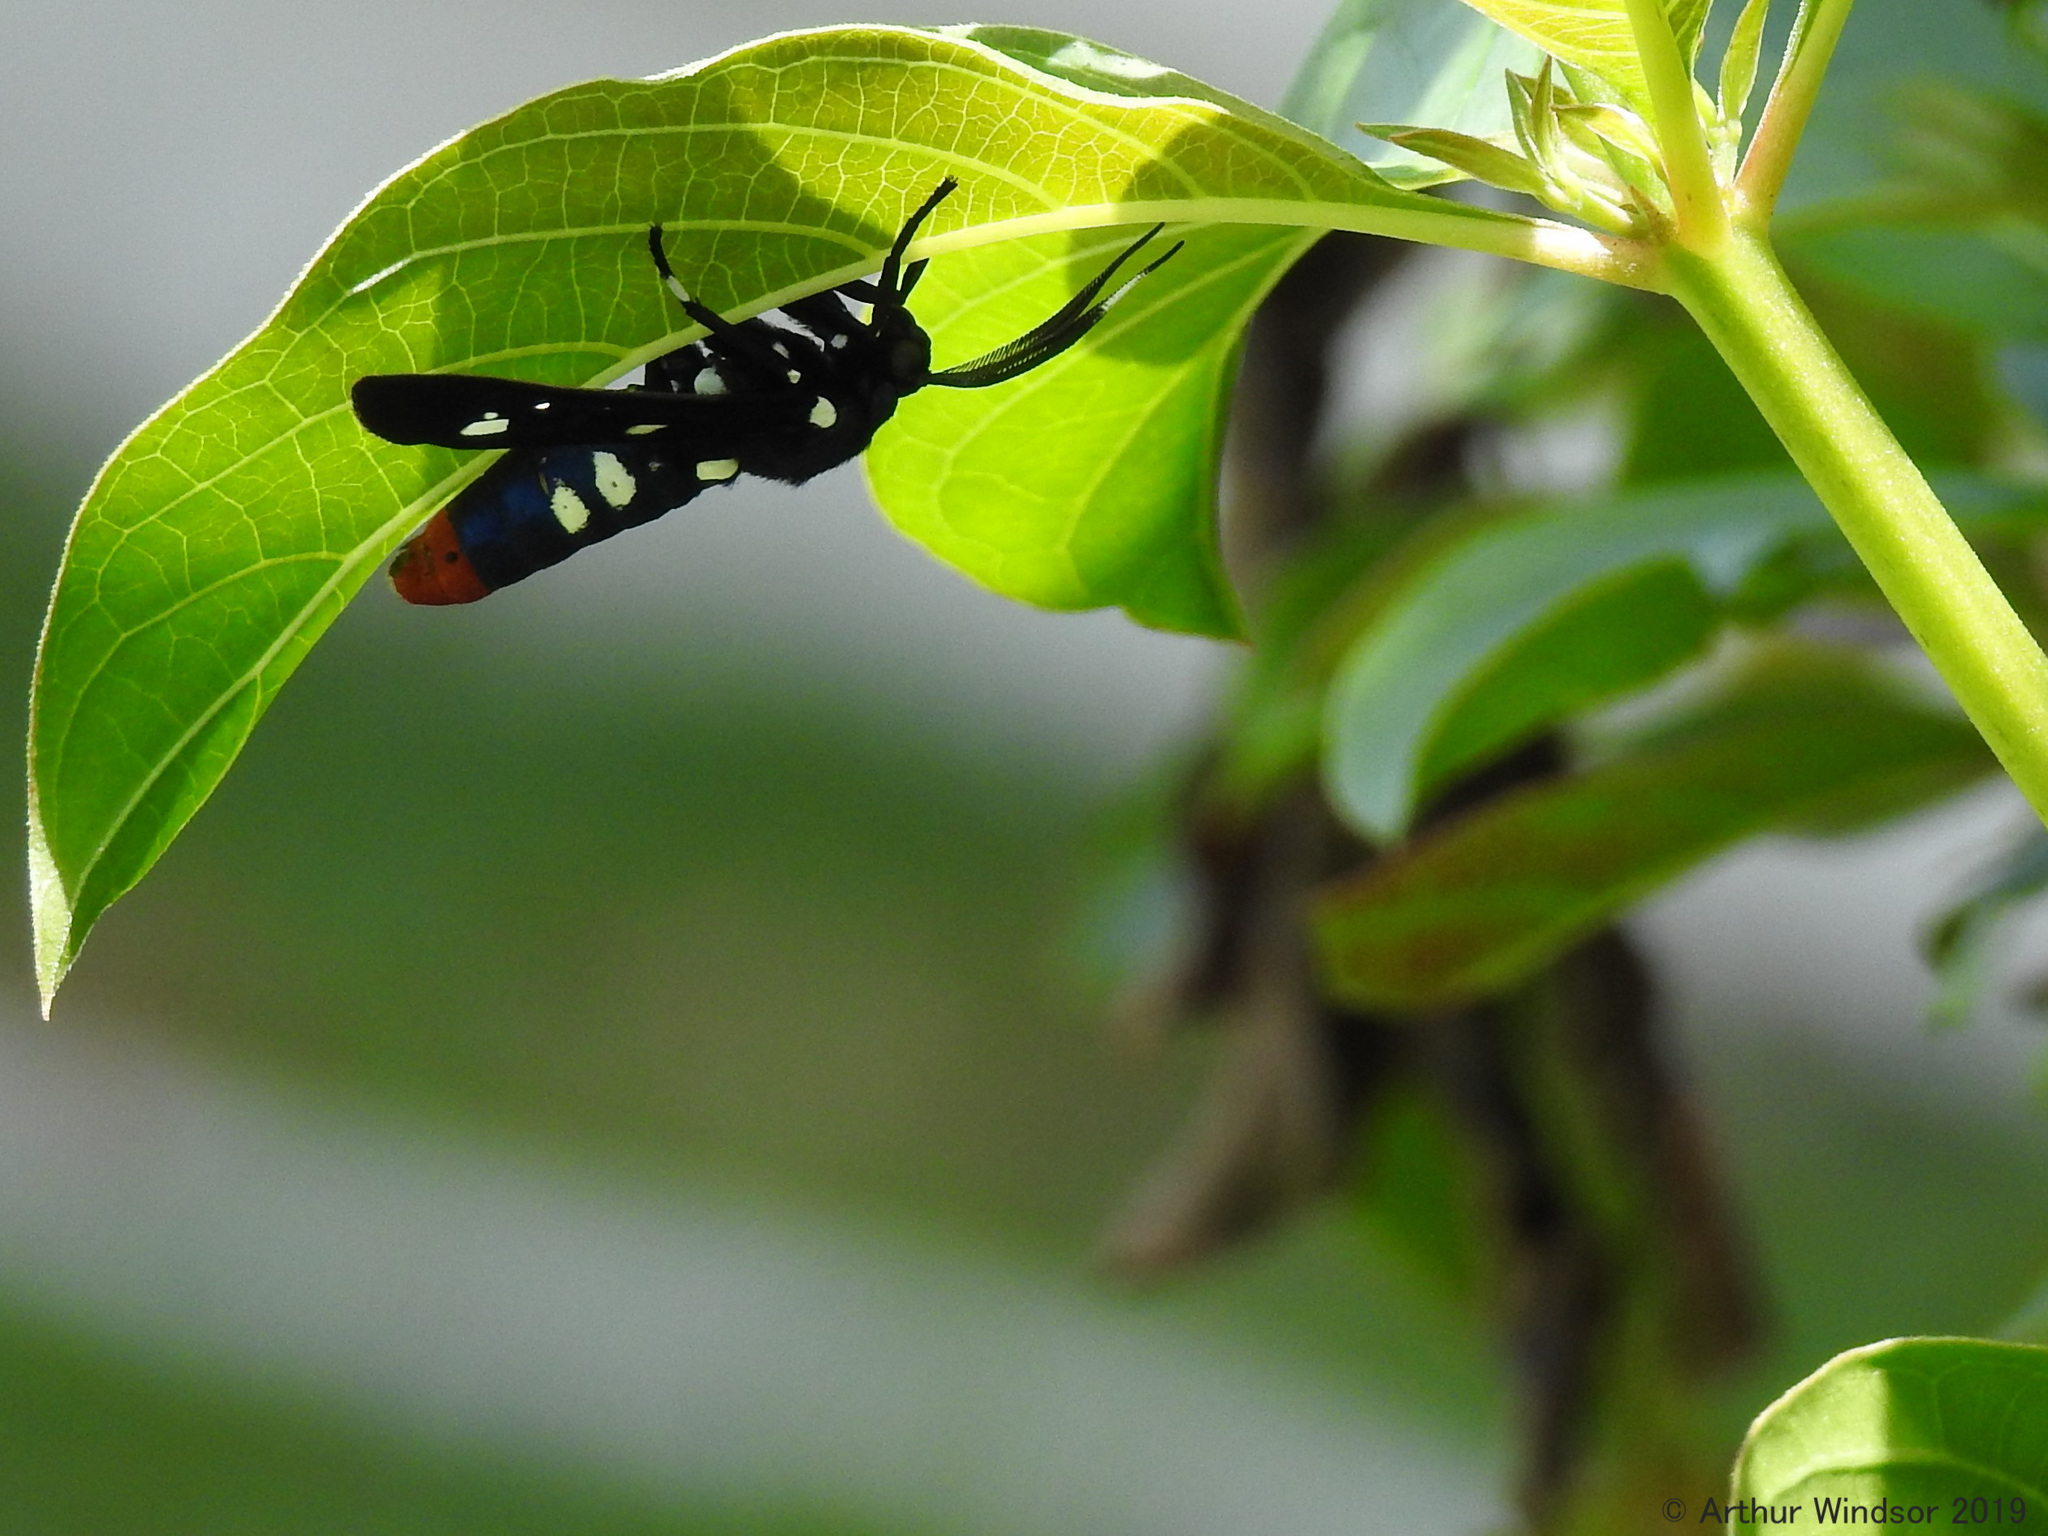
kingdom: Animalia
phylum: Arthropoda
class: Insecta
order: Lepidoptera
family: Erebidae
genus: Syntomeida
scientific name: Syntomeida epilais
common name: Polka-dot wasp moth
